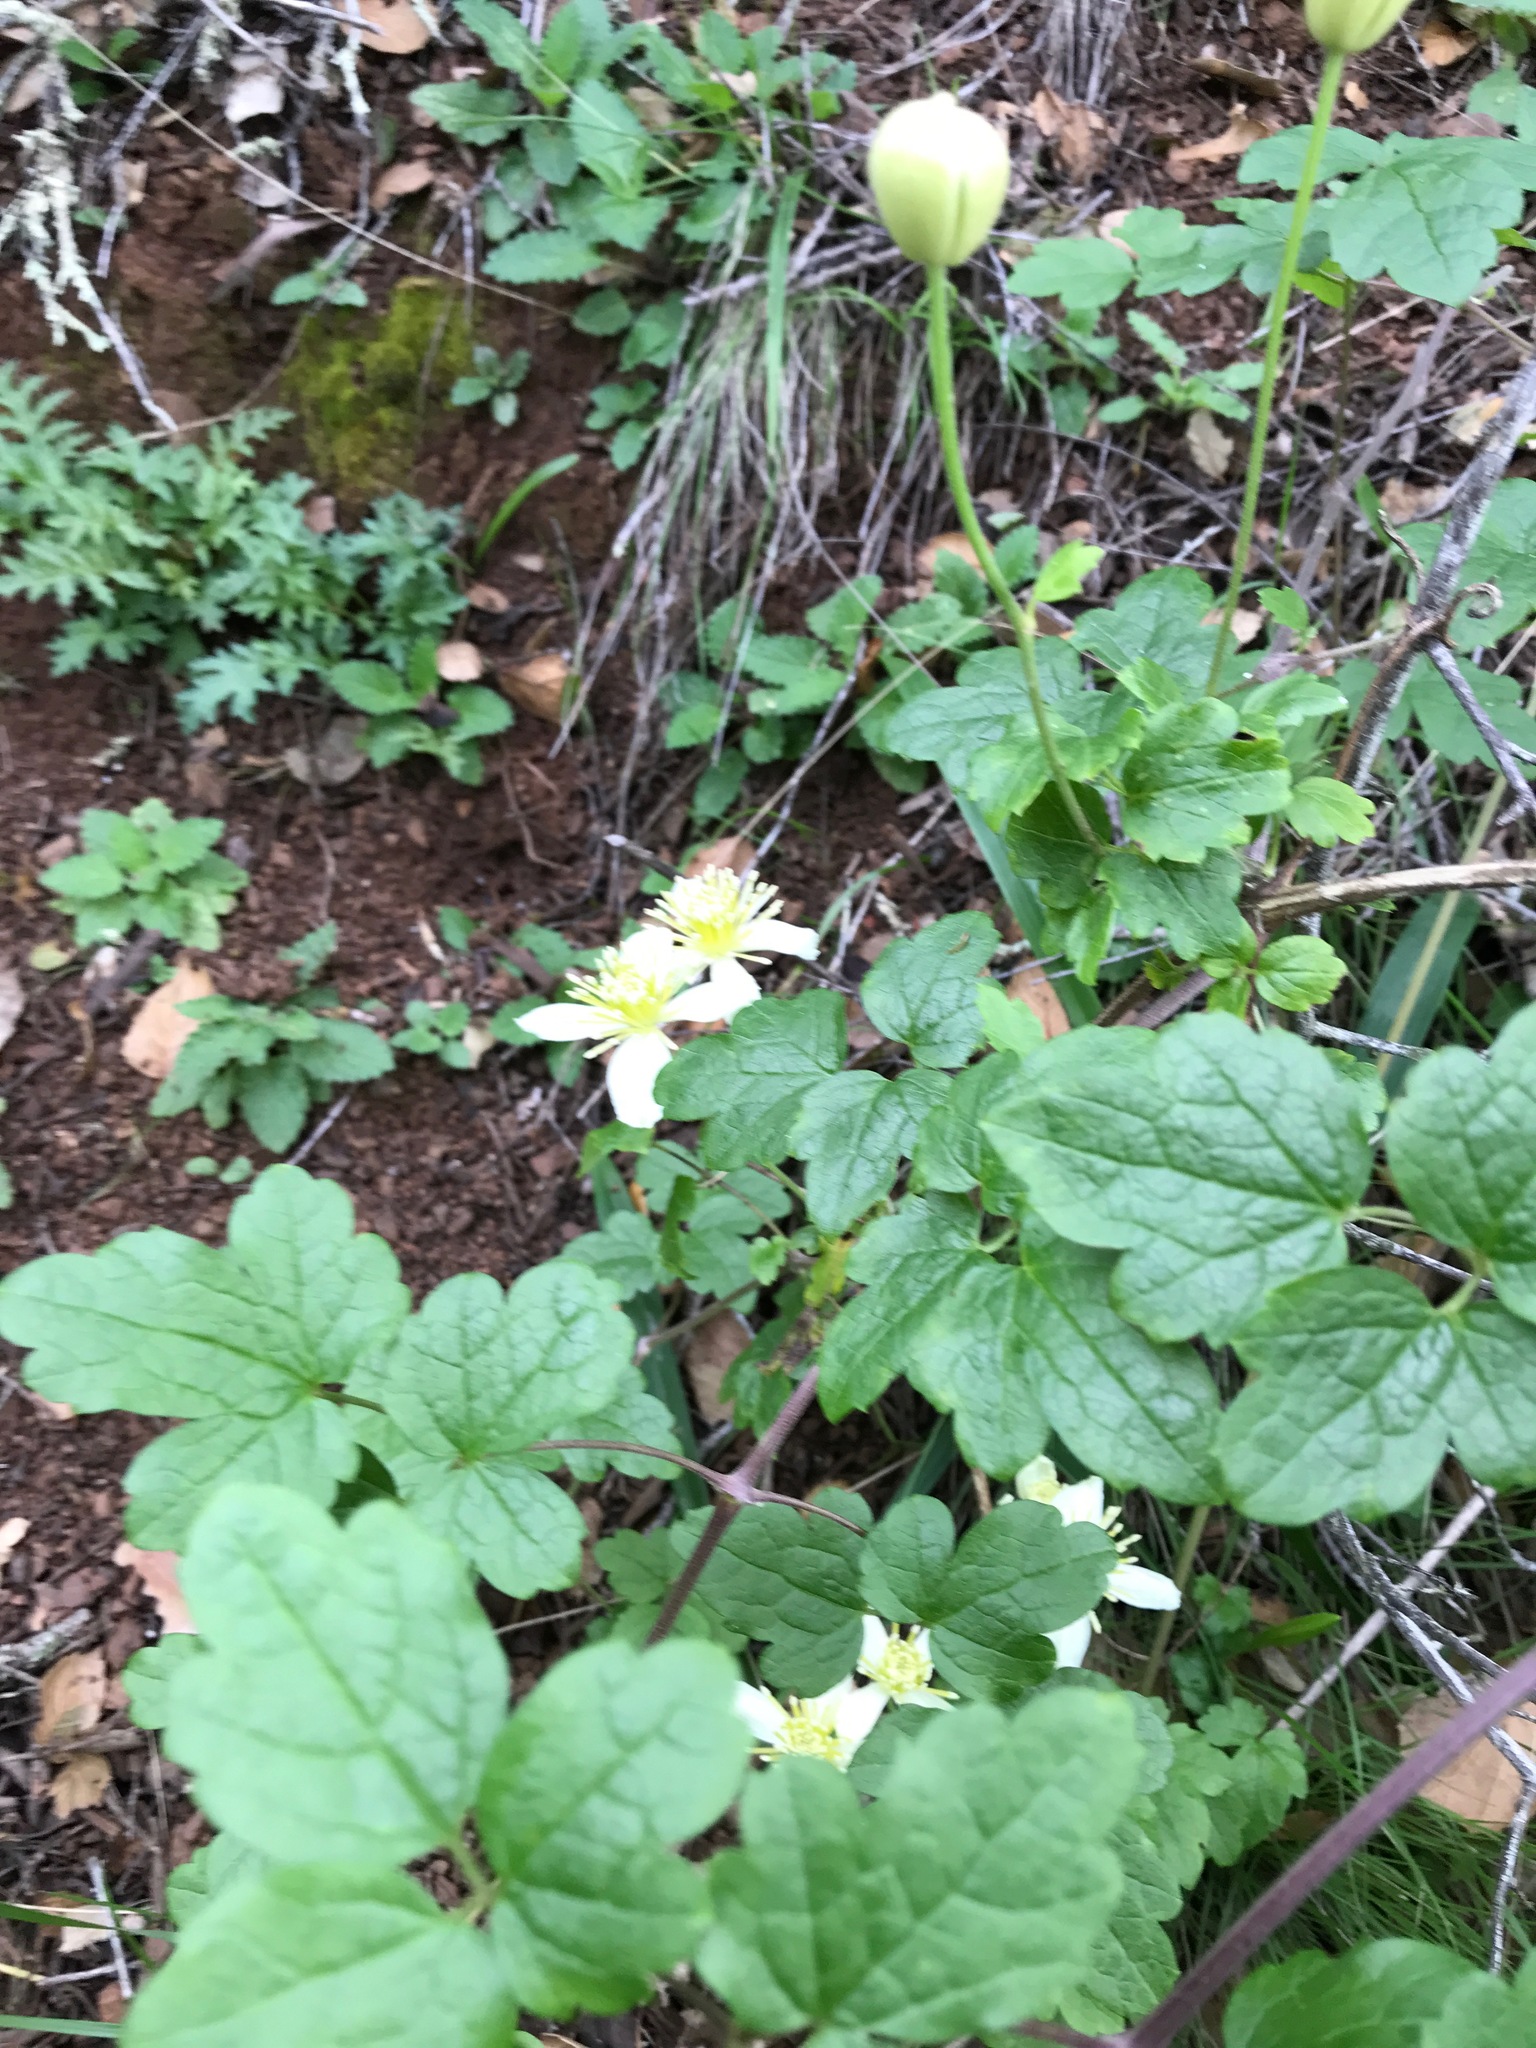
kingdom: Plantae
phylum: Tracheophyta
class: Magnoliopsida
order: Ranunculales
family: Ranunculaceae
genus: Clematis
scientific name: Clematis lasiantha
